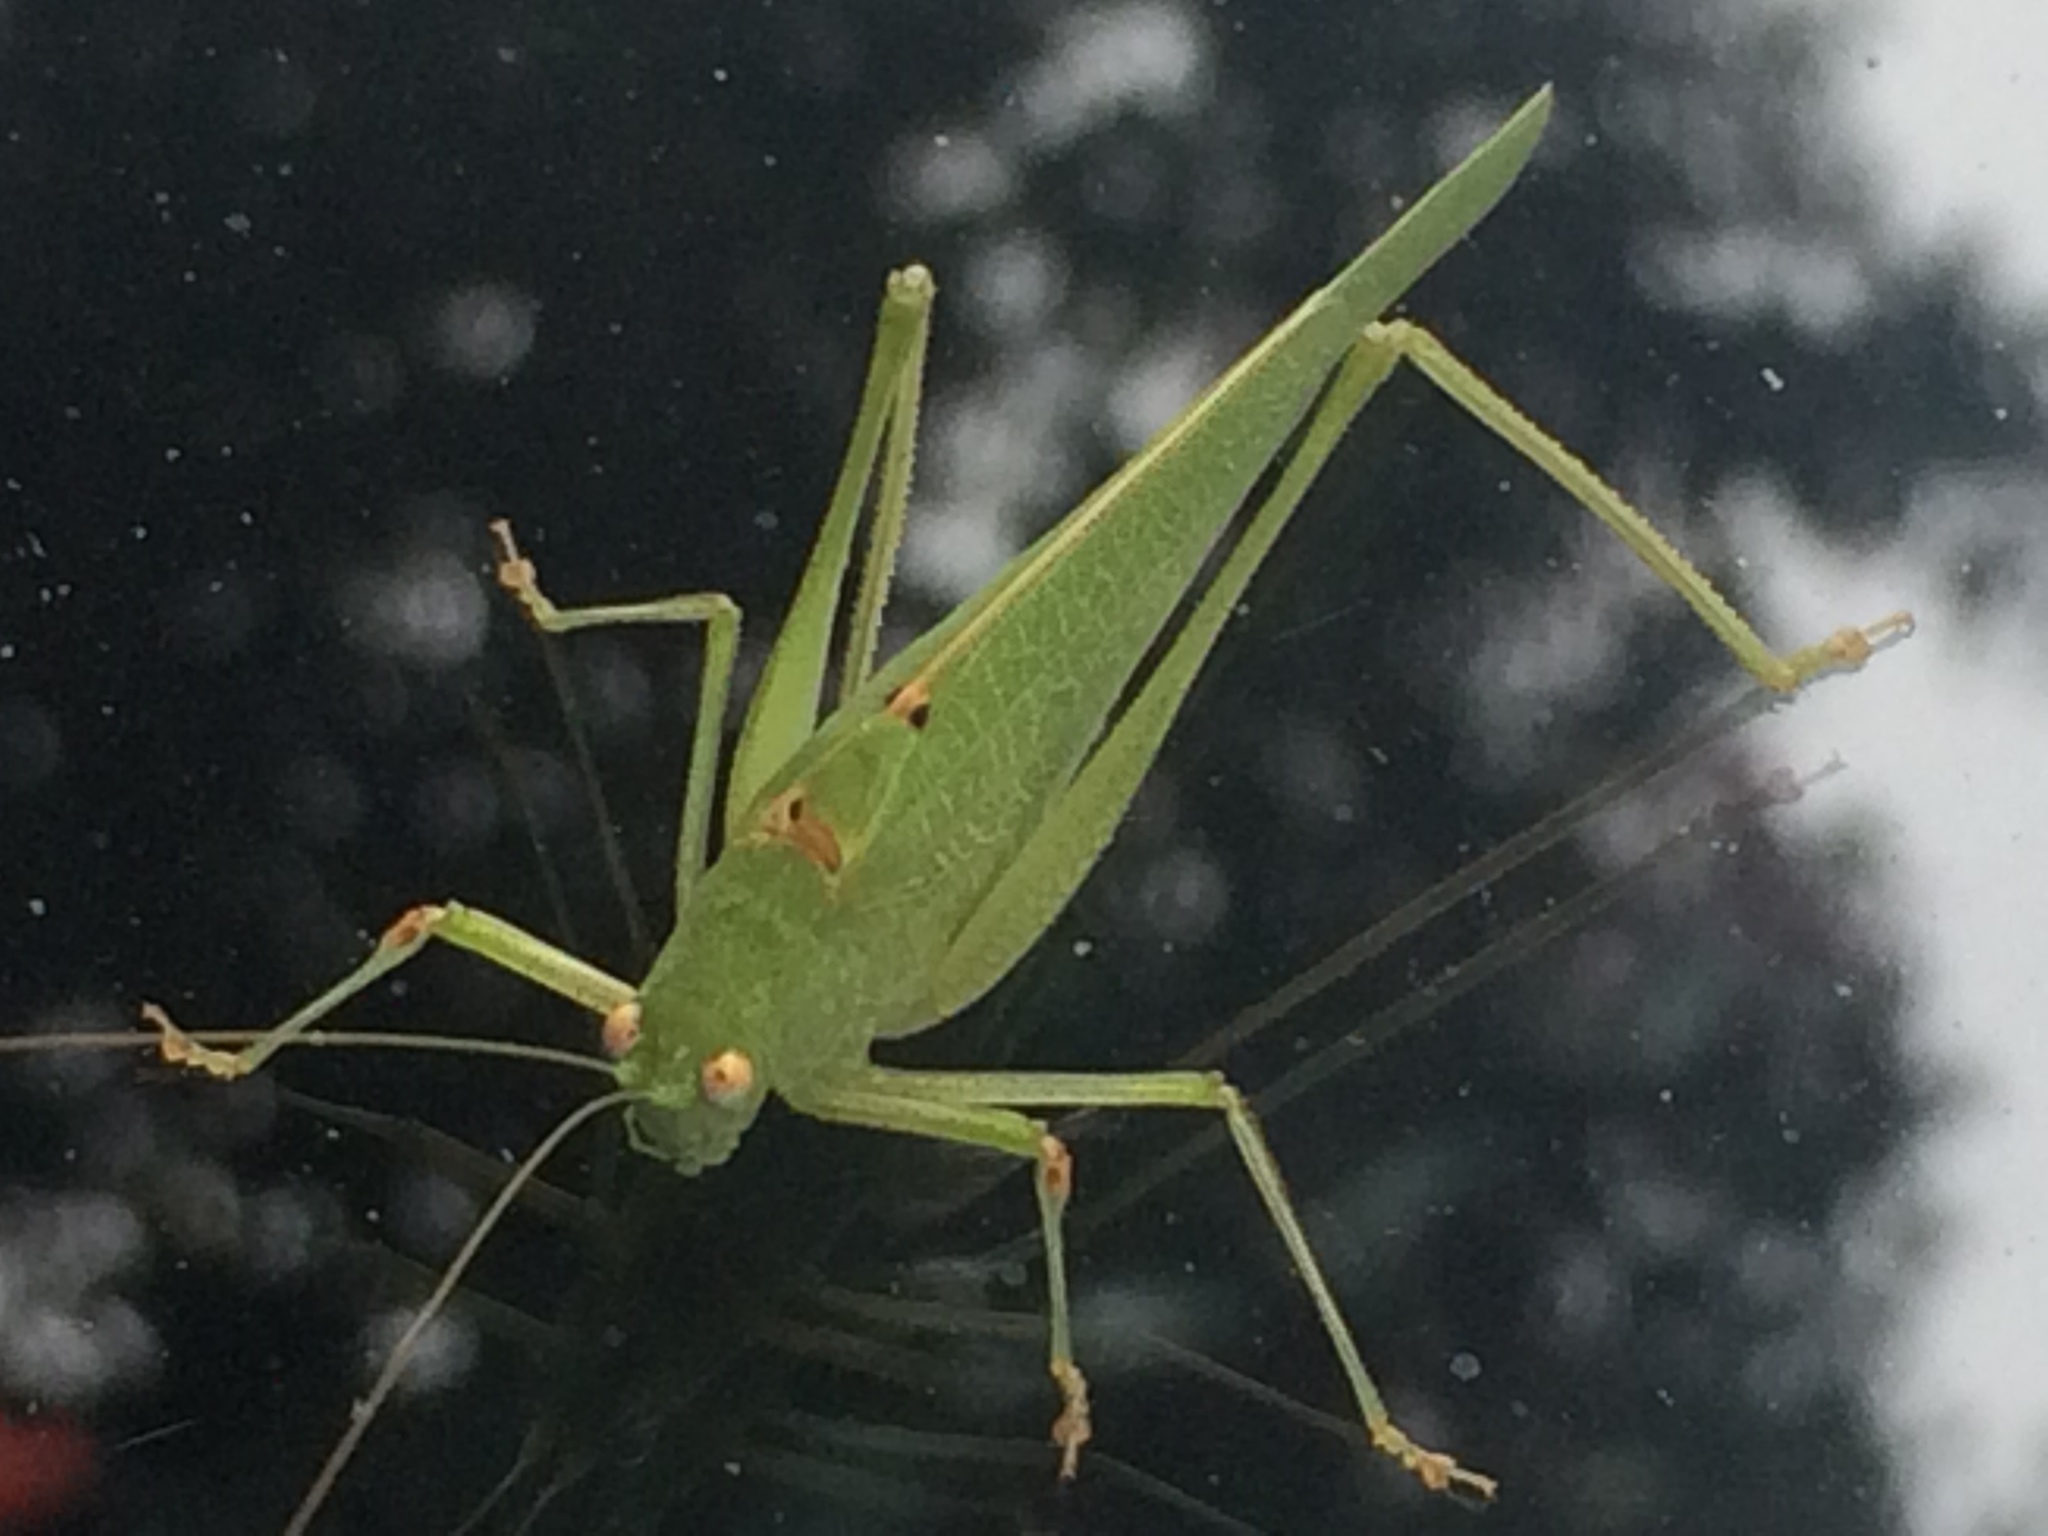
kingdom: Animalia
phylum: Arthropoda
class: Insecta
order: Orthoptera
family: Tettigoniidae
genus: Phaneroptera
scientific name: Phaneroptera nana
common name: Southern sickle bush-cricket
